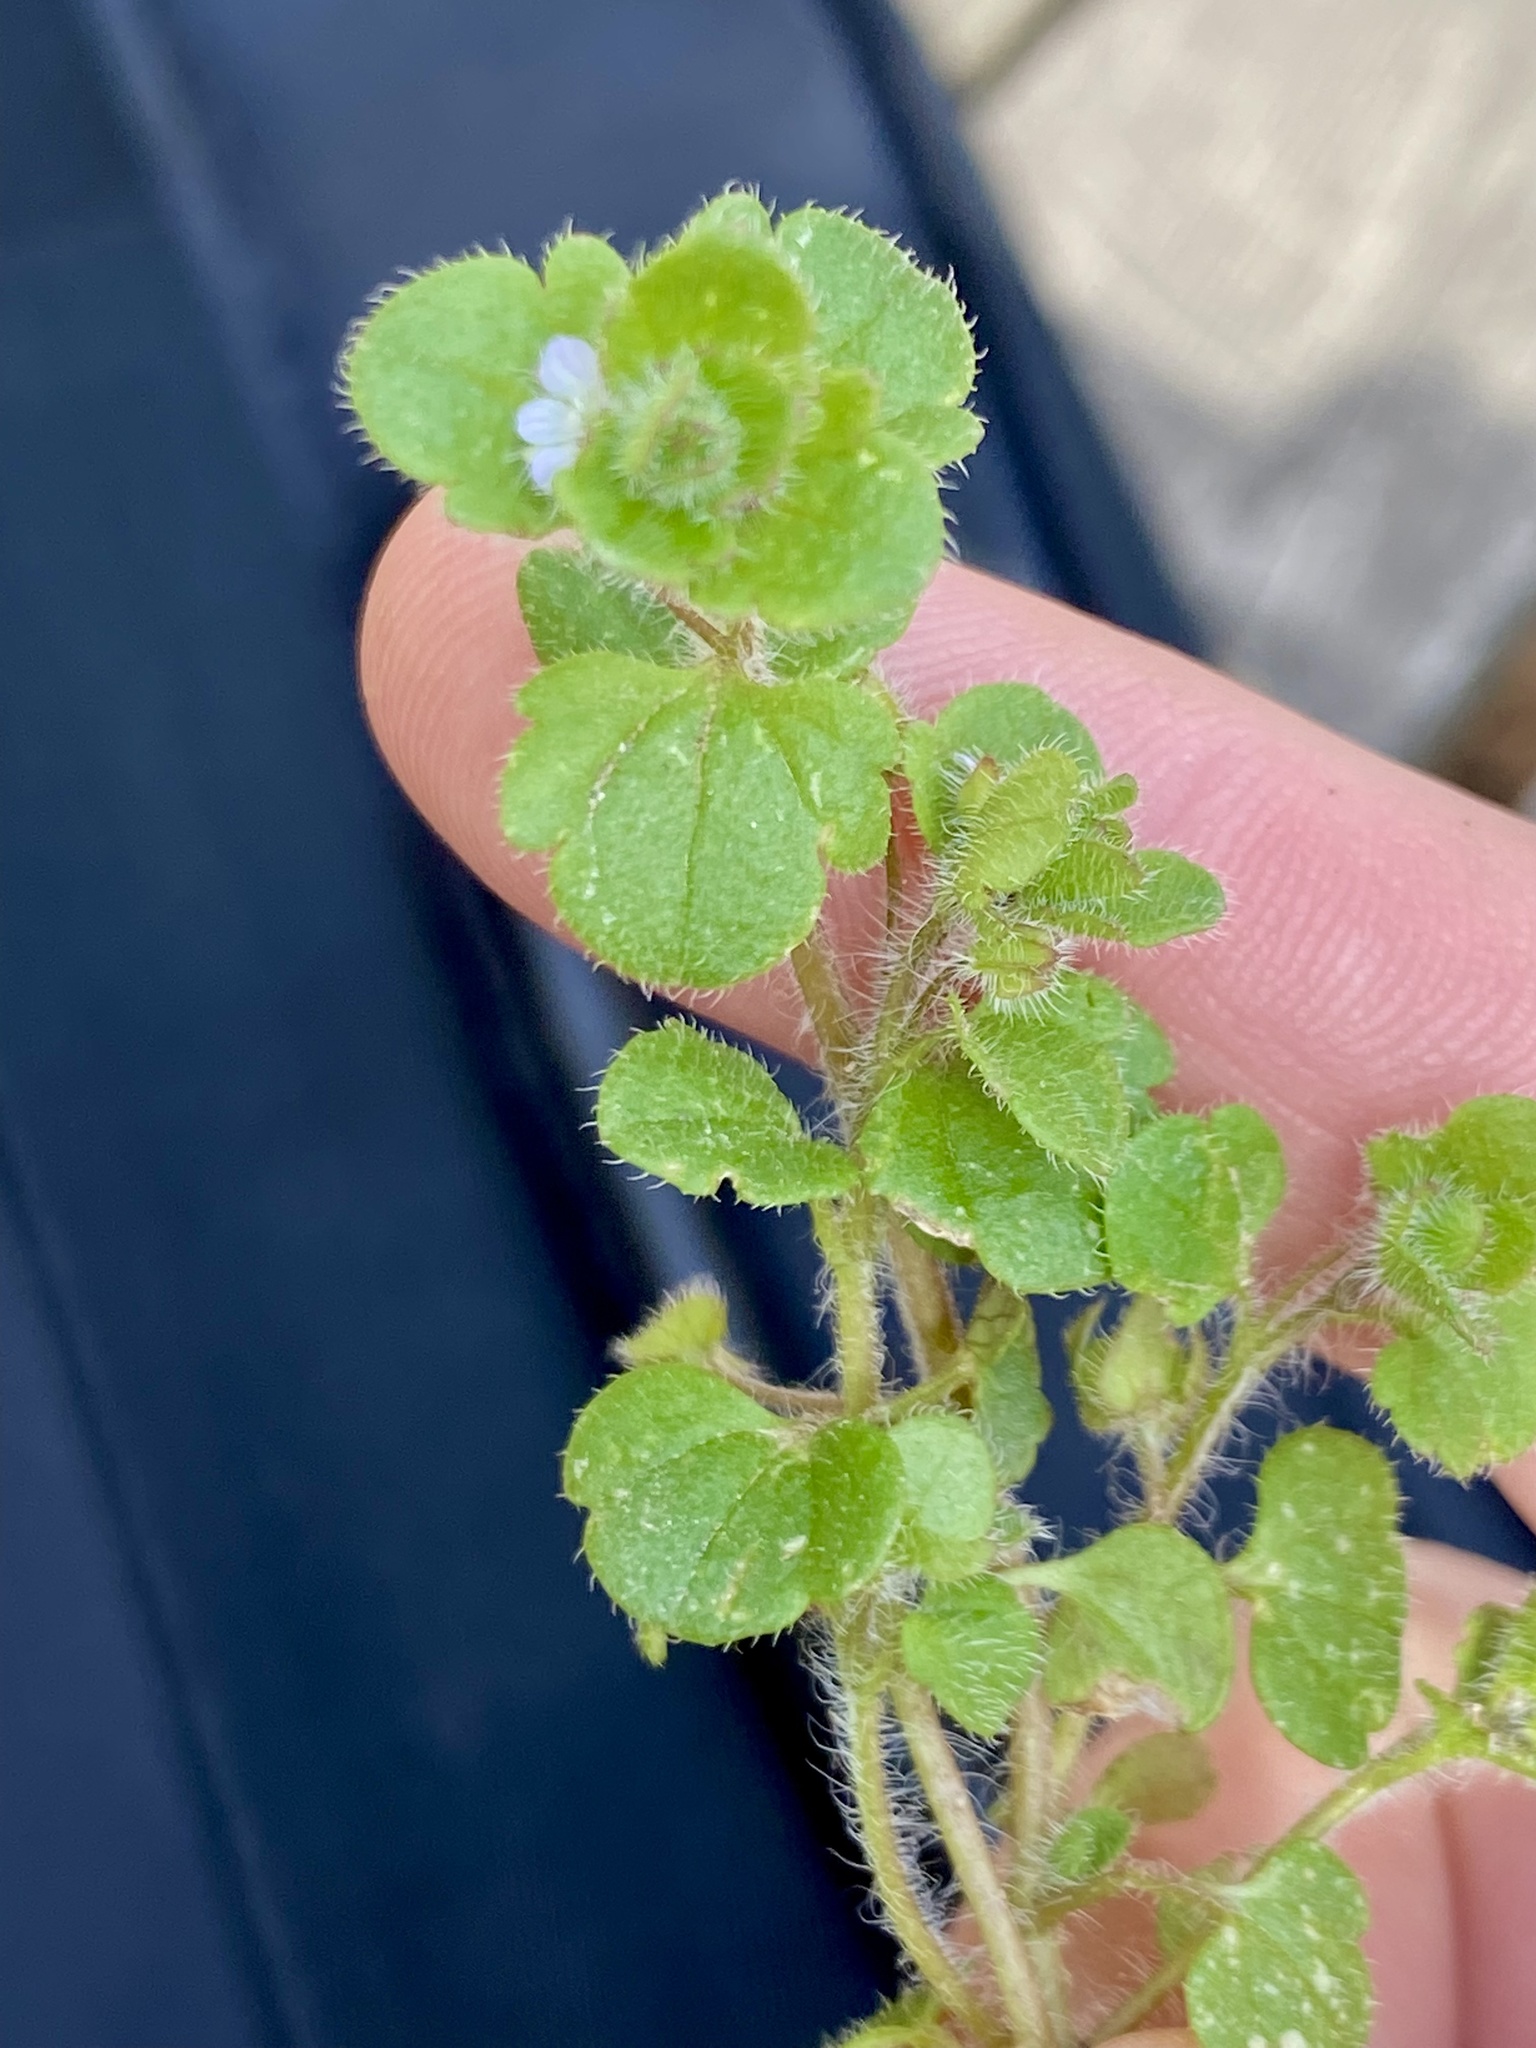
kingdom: Plantae
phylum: Tracheophyta
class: Magnoliopsida
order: Lamiales
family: Plantaginaceae
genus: Veronica
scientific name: Veronica sublobata
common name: False ivy-leaved speedwell
